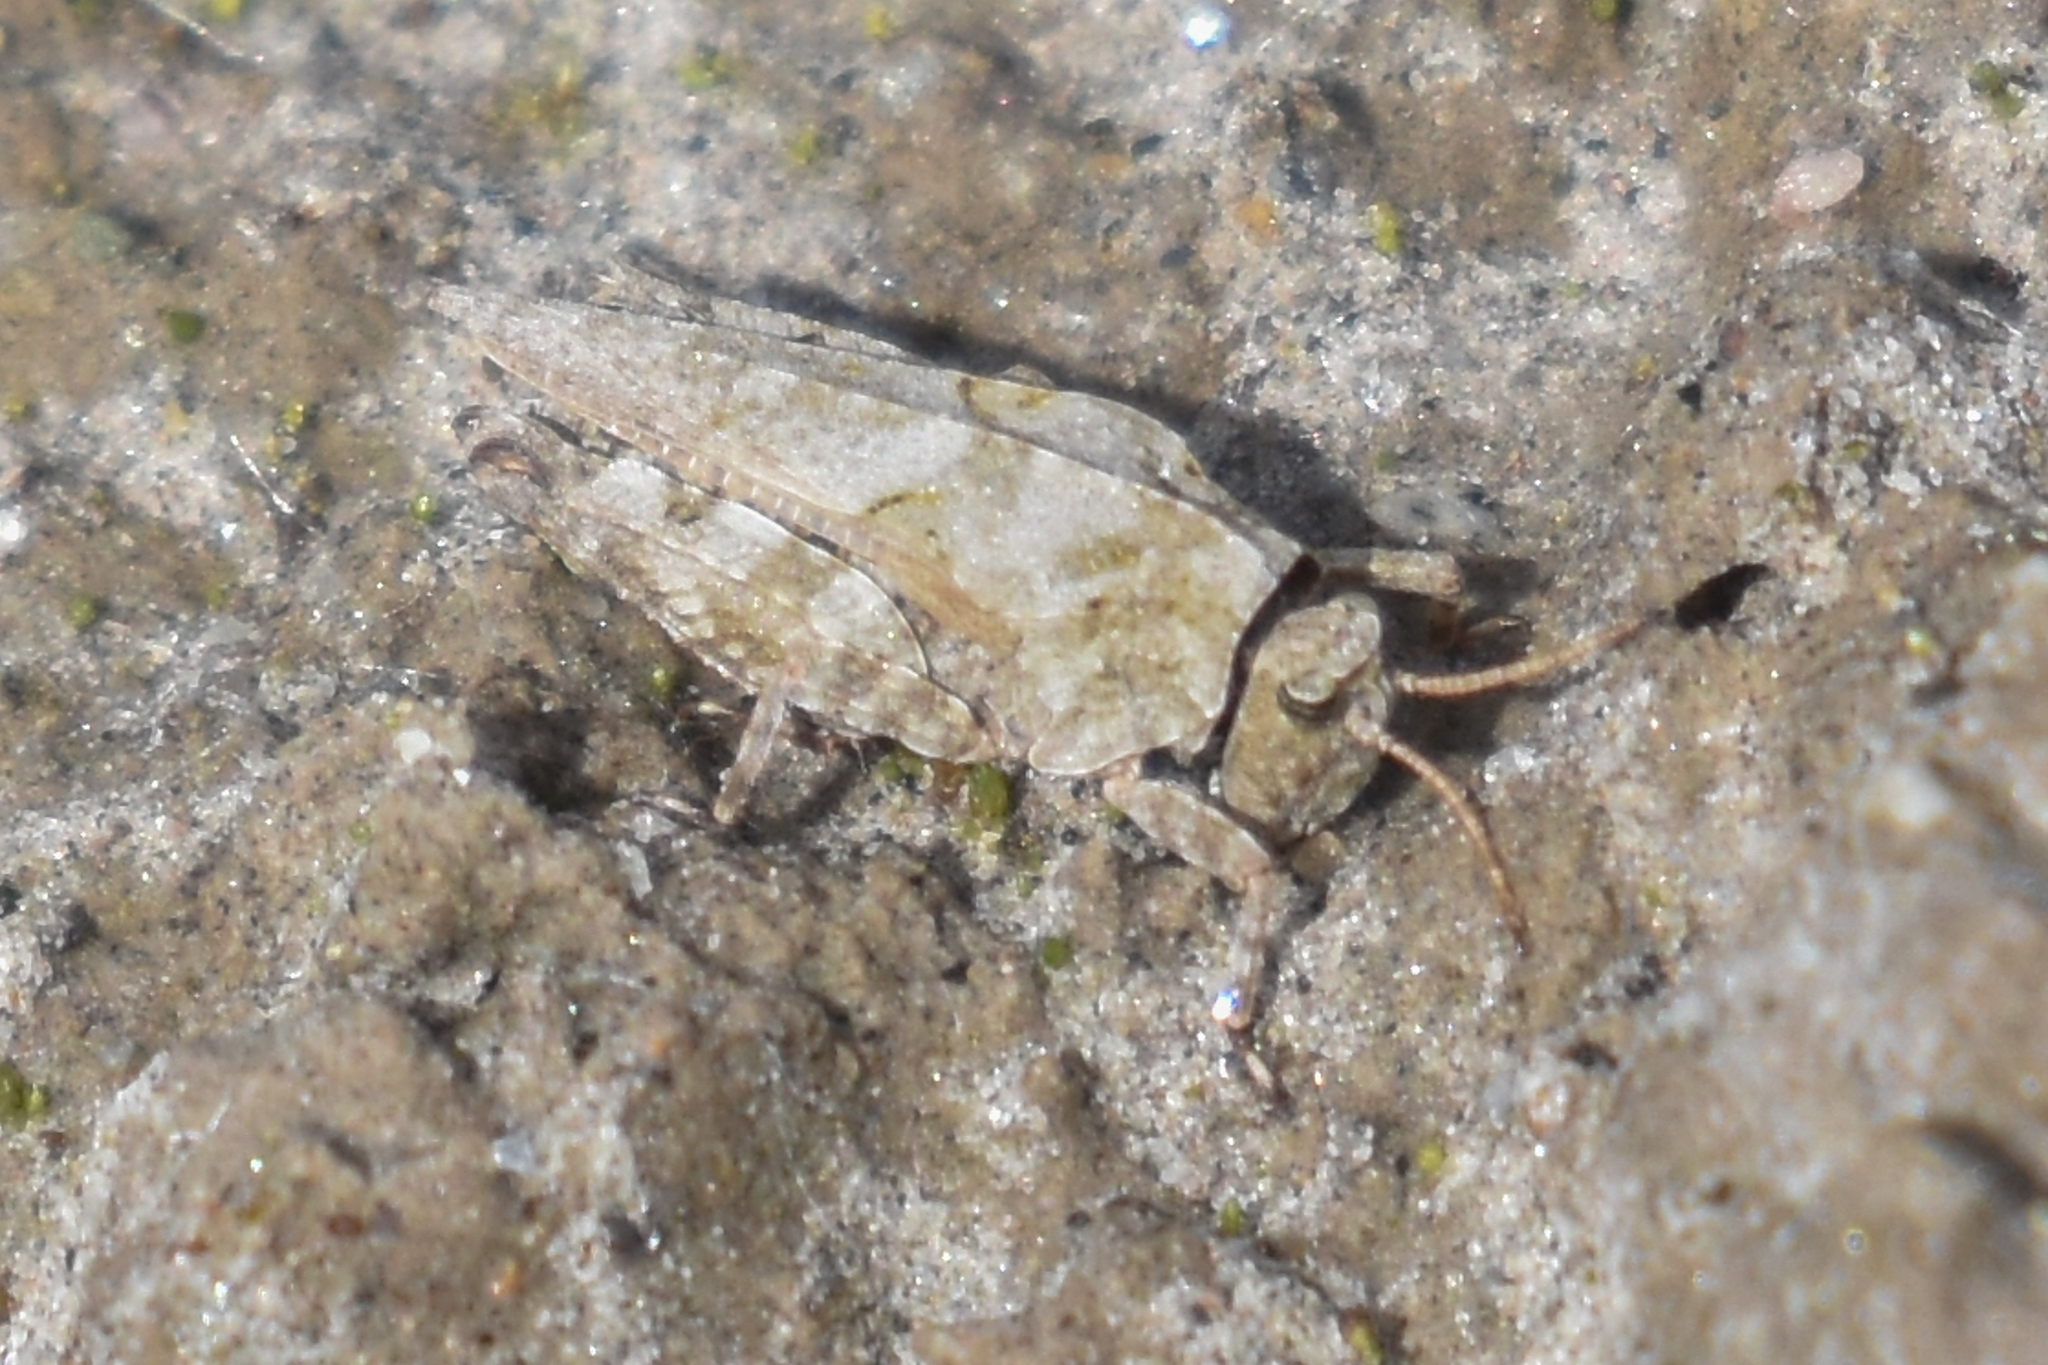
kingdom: Animalia
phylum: Arthropoda
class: Insecta
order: Orthoptera
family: Tetrigidae
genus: Tetrix
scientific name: Tetrix brunnerii
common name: Brunner's grouse locust
